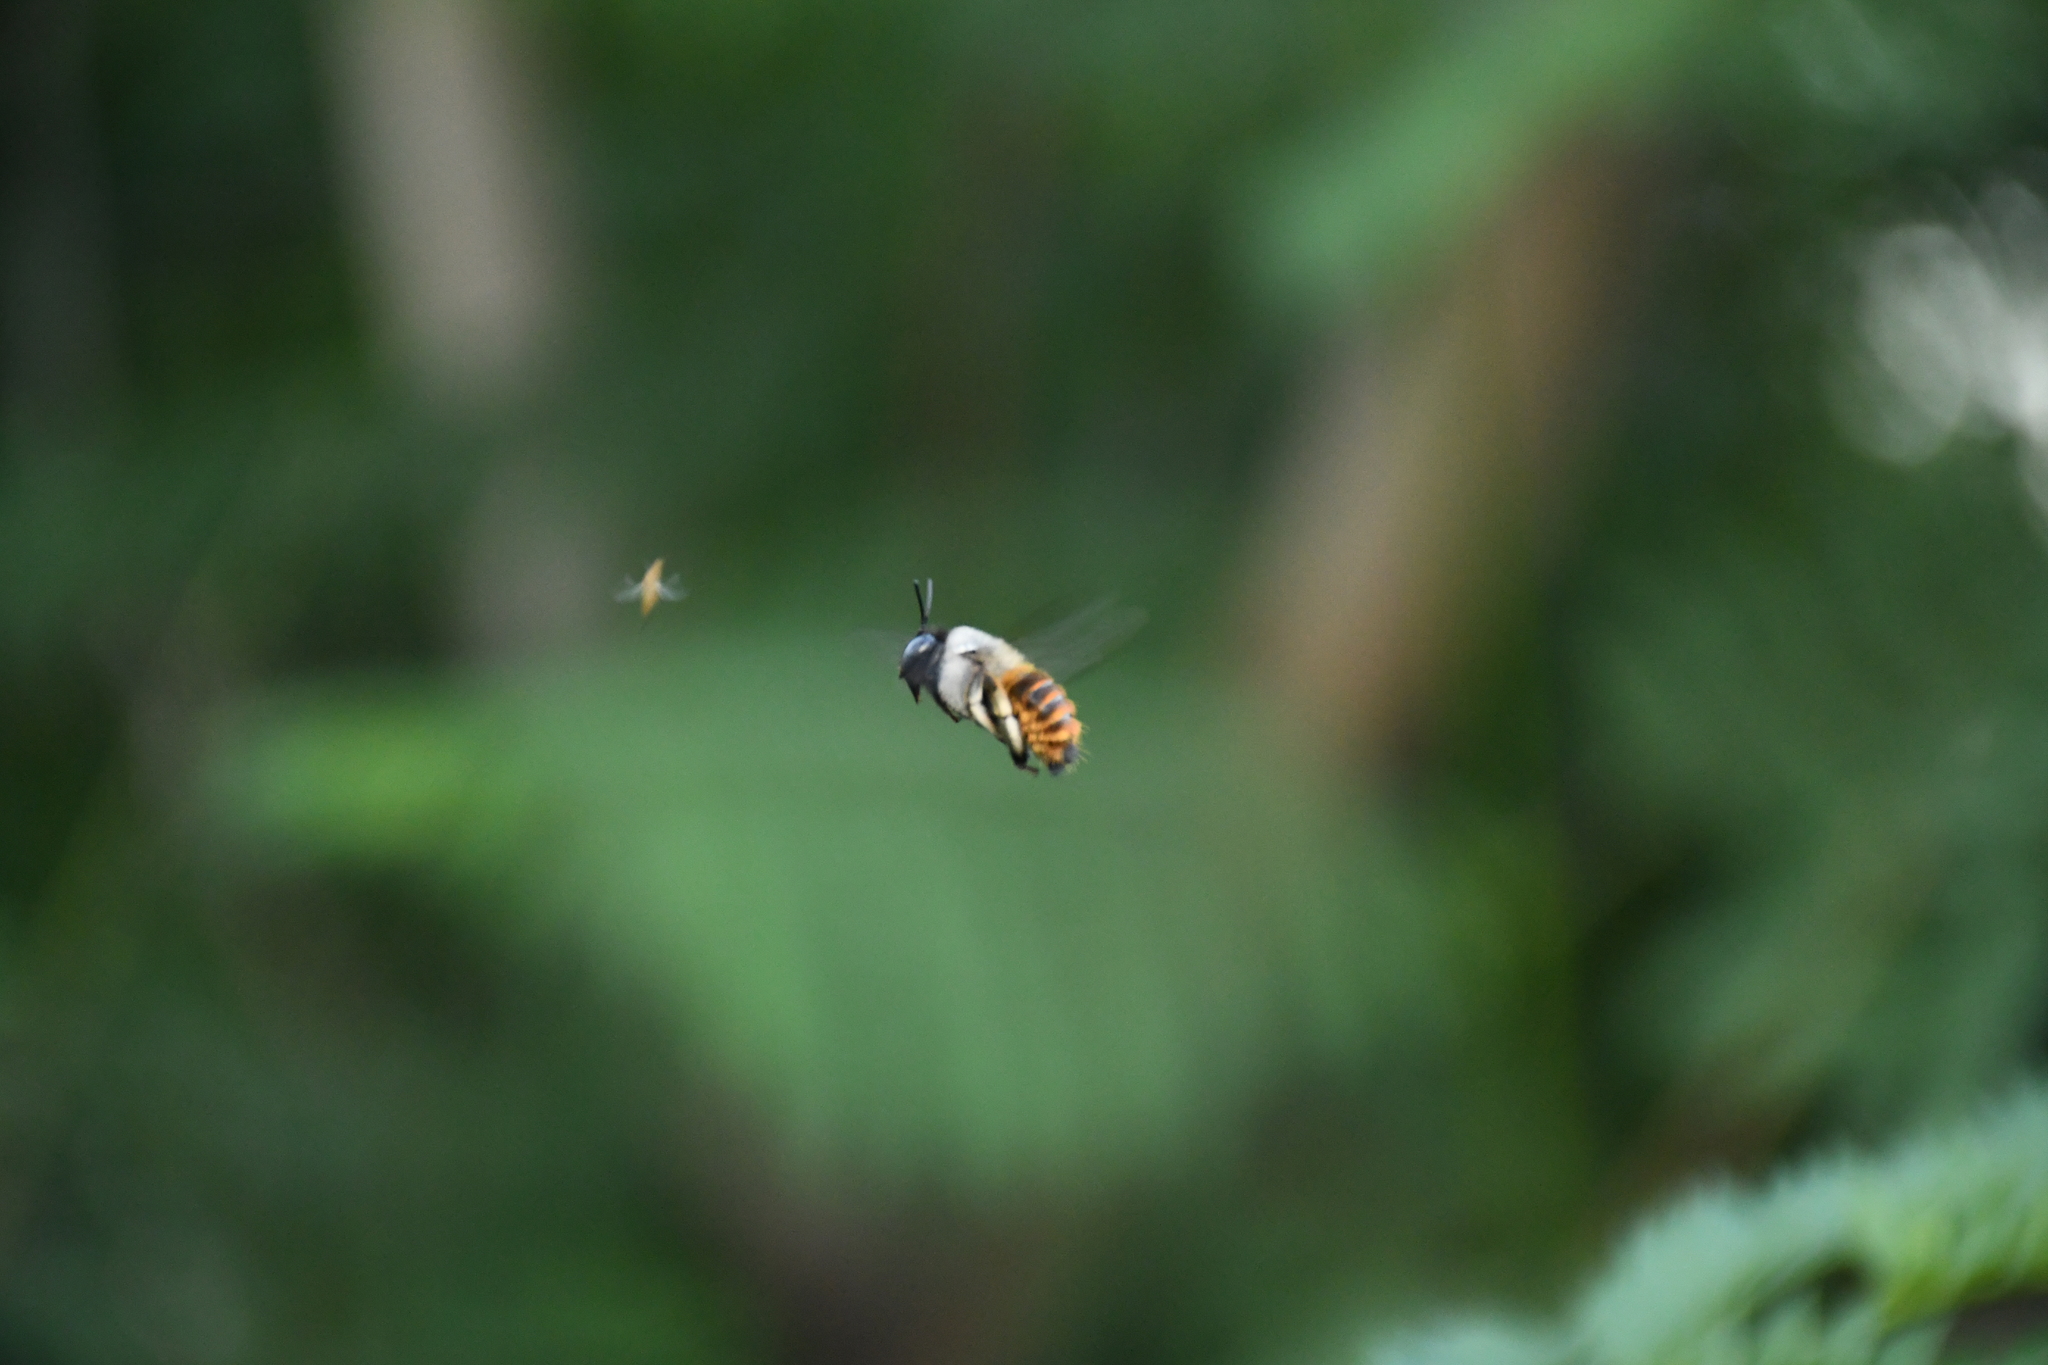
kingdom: Animalia
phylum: Arthropoda
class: Insecta
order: Hymenoptera
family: Apidae
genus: Xylocopa
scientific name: Xylocopa tabaniformis
